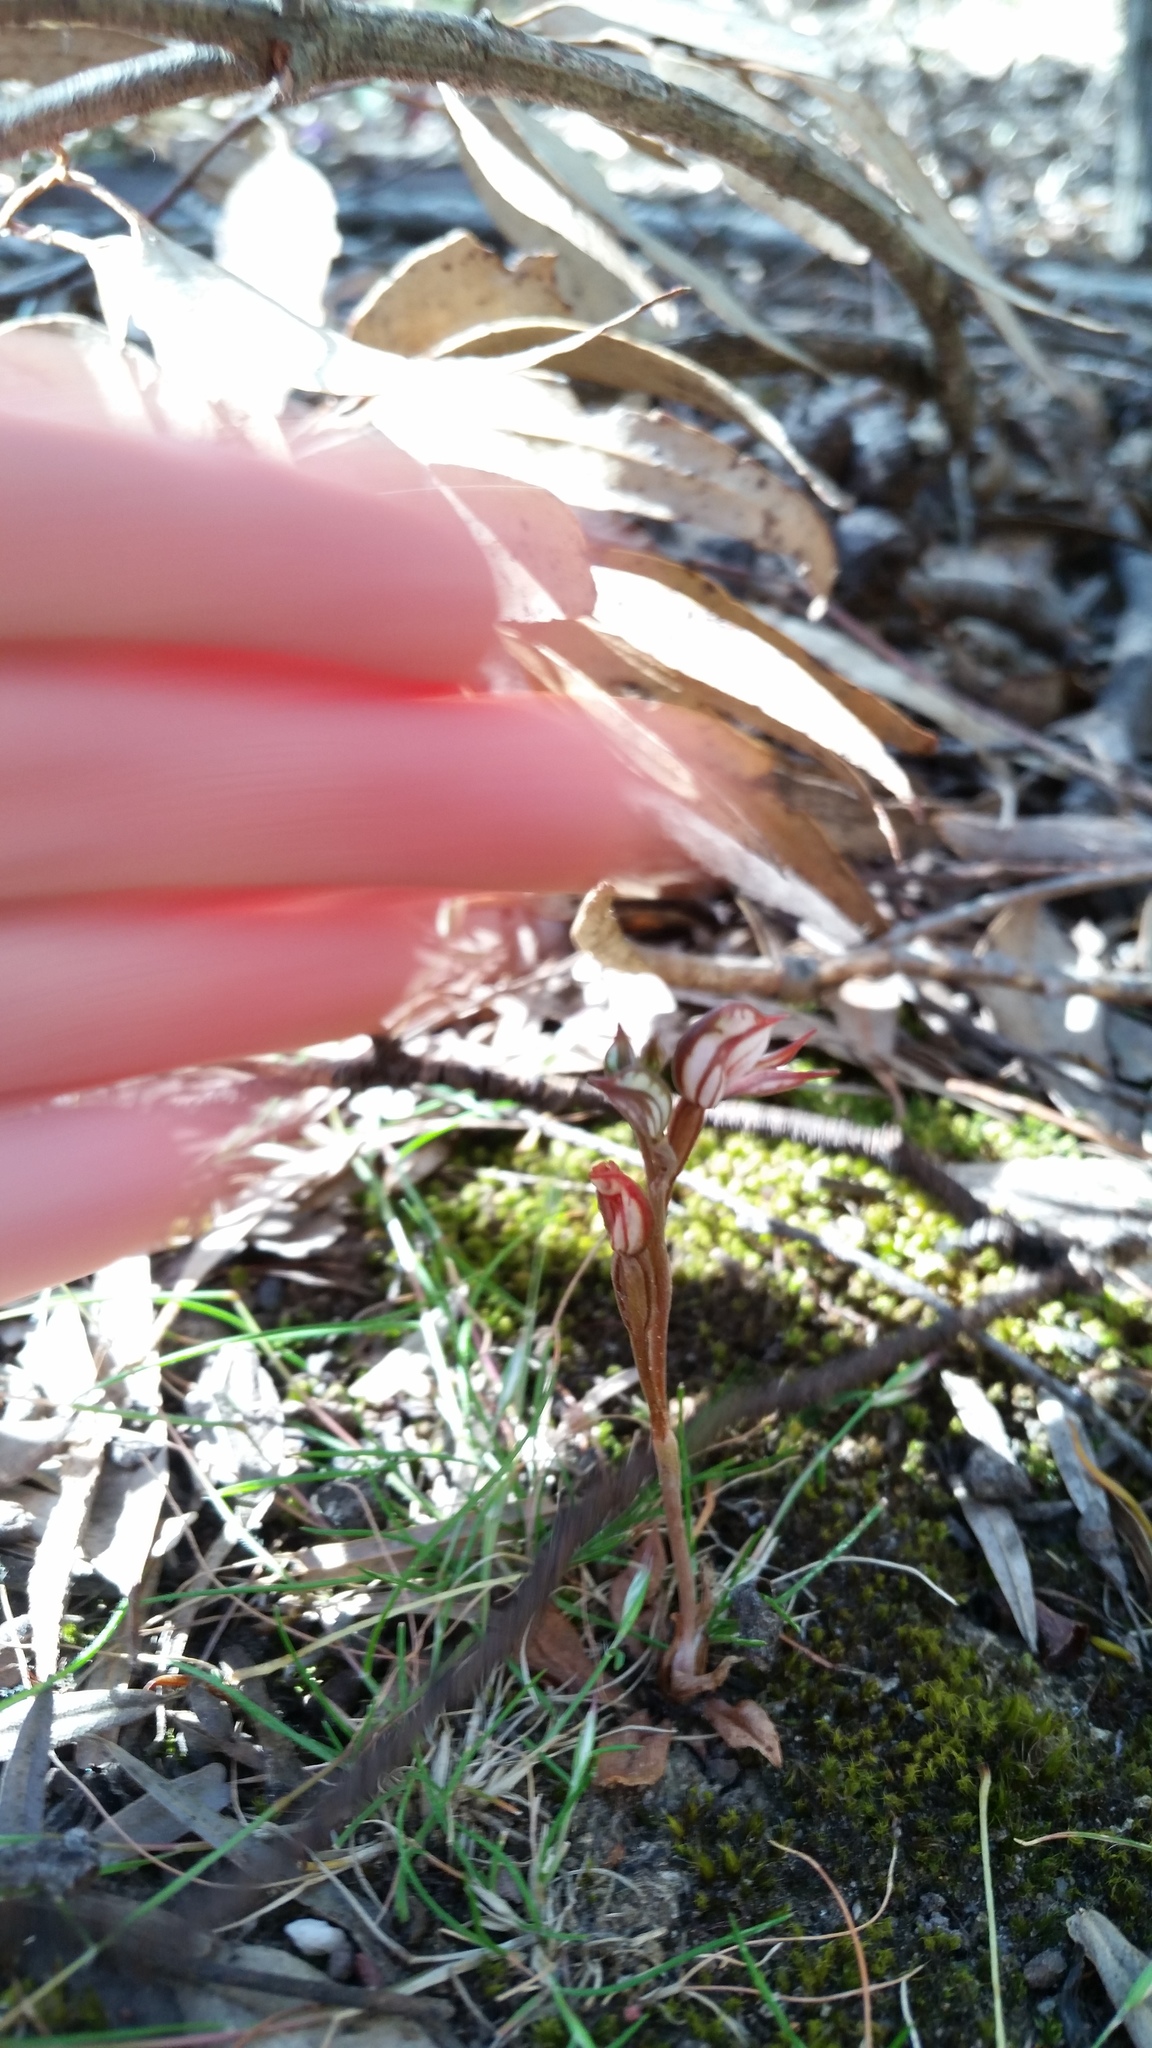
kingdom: Plantae
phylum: Tracheophyta
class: Liliopsida
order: Asparagales
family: Orchidaceae
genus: Pterostylis
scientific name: Pterostylis perculta
